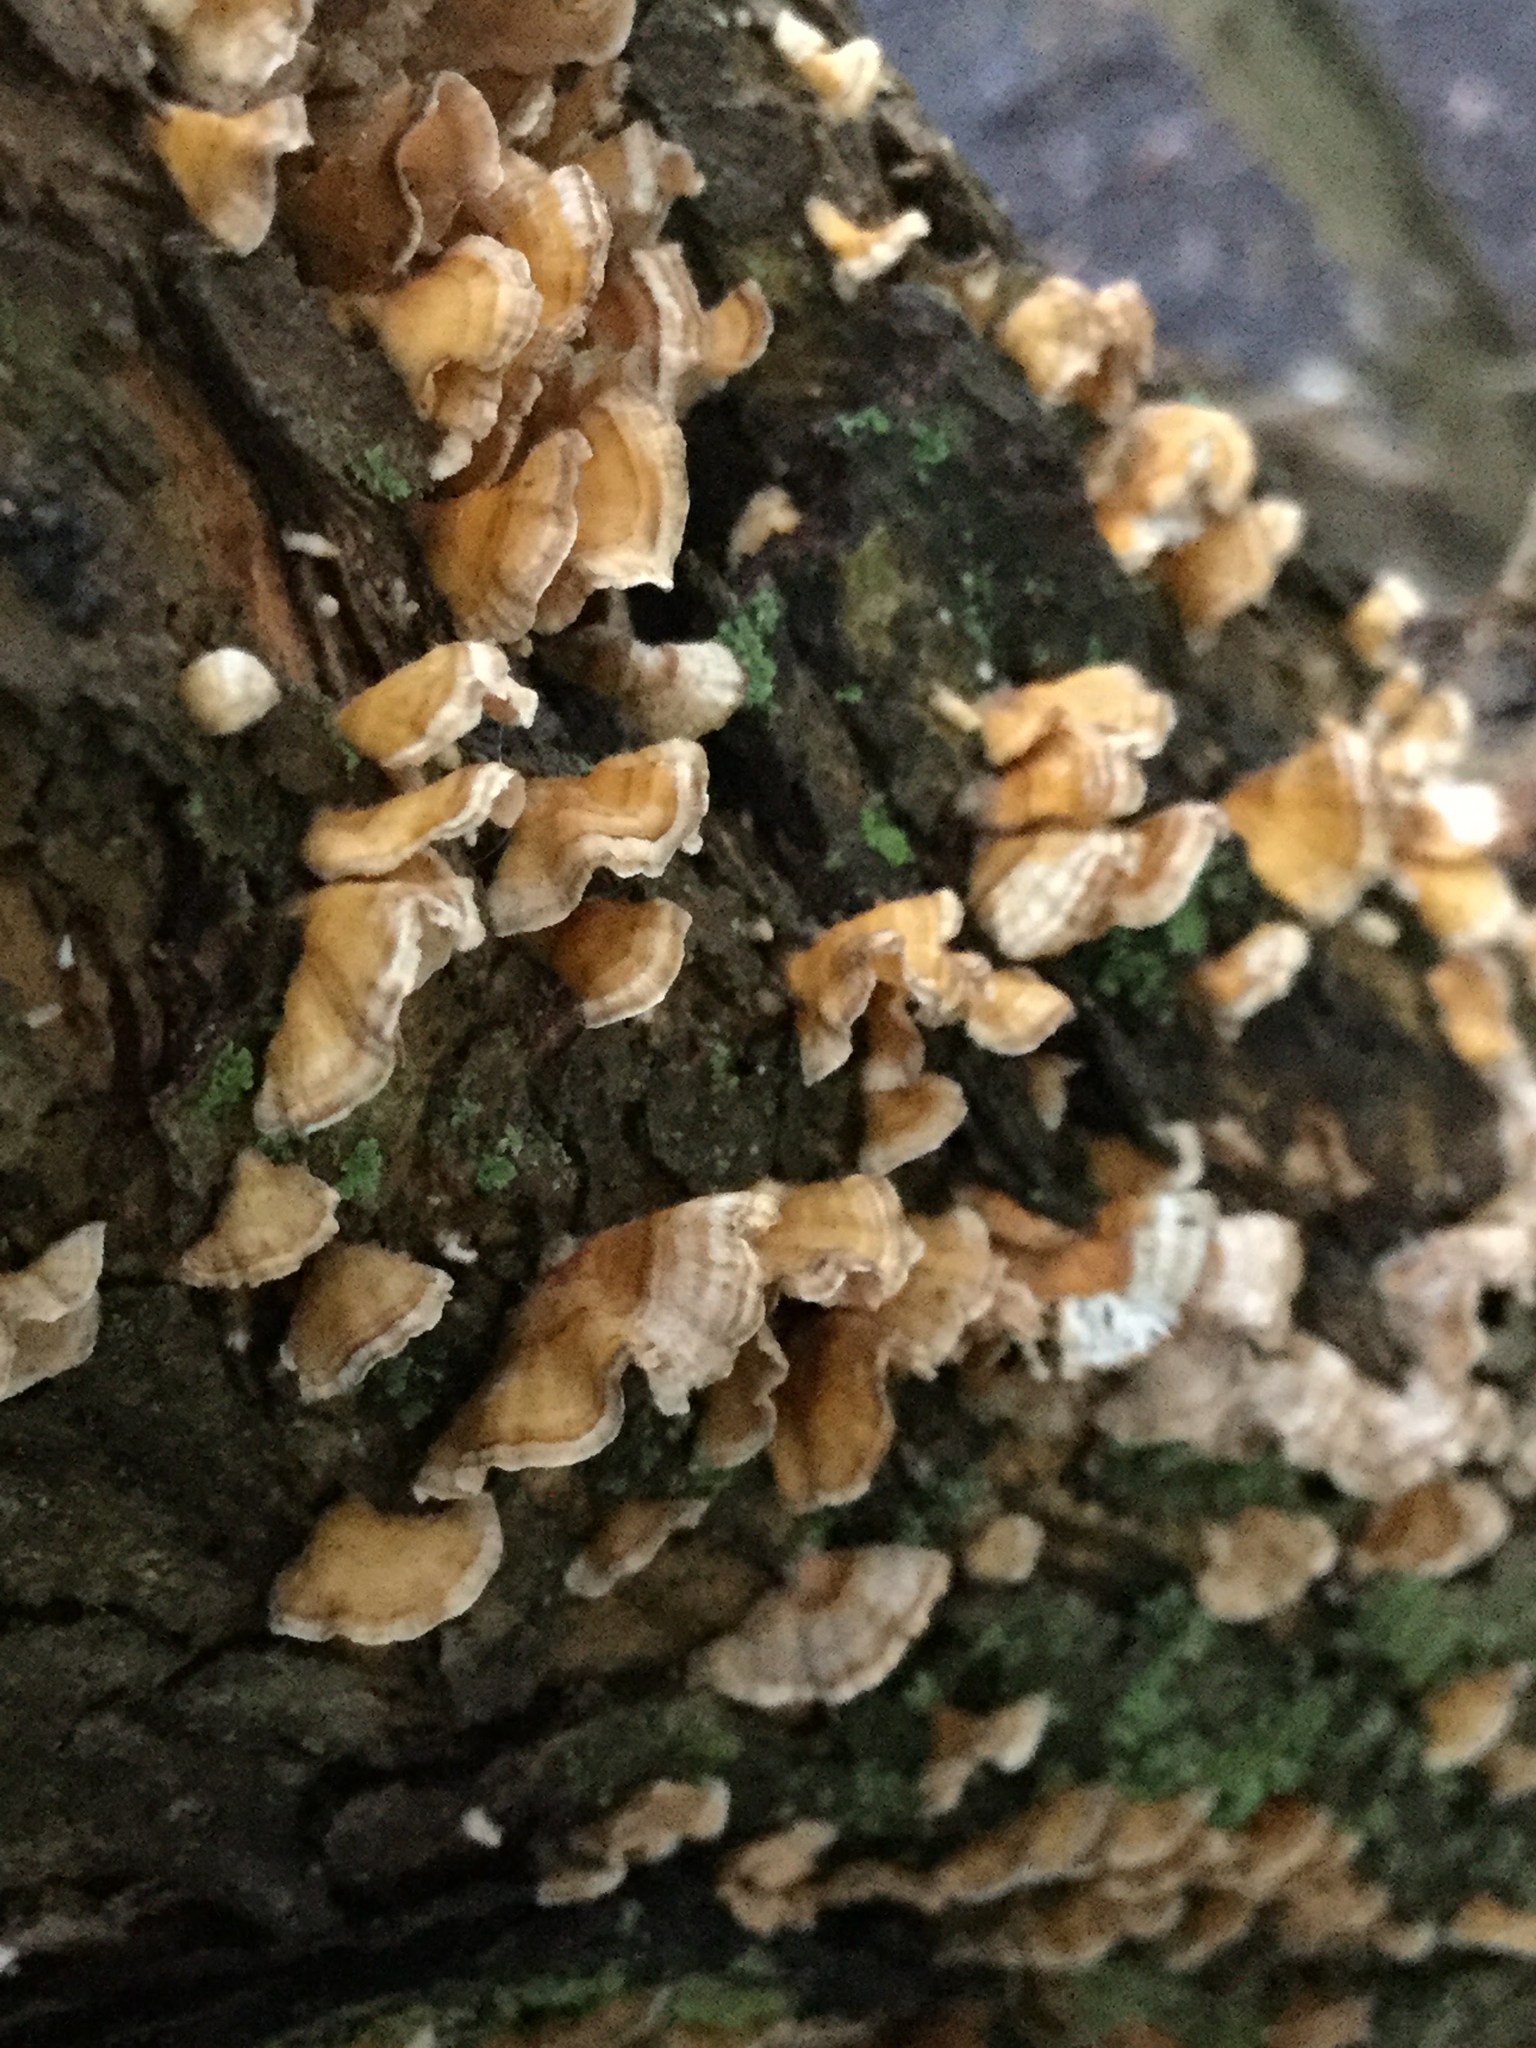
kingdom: Fungi
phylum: Basidiomycota
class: Agaricomycetes
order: Russulales
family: Stereaceae
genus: Stereum
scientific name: Stereum complicatum
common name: Crowded parchment
